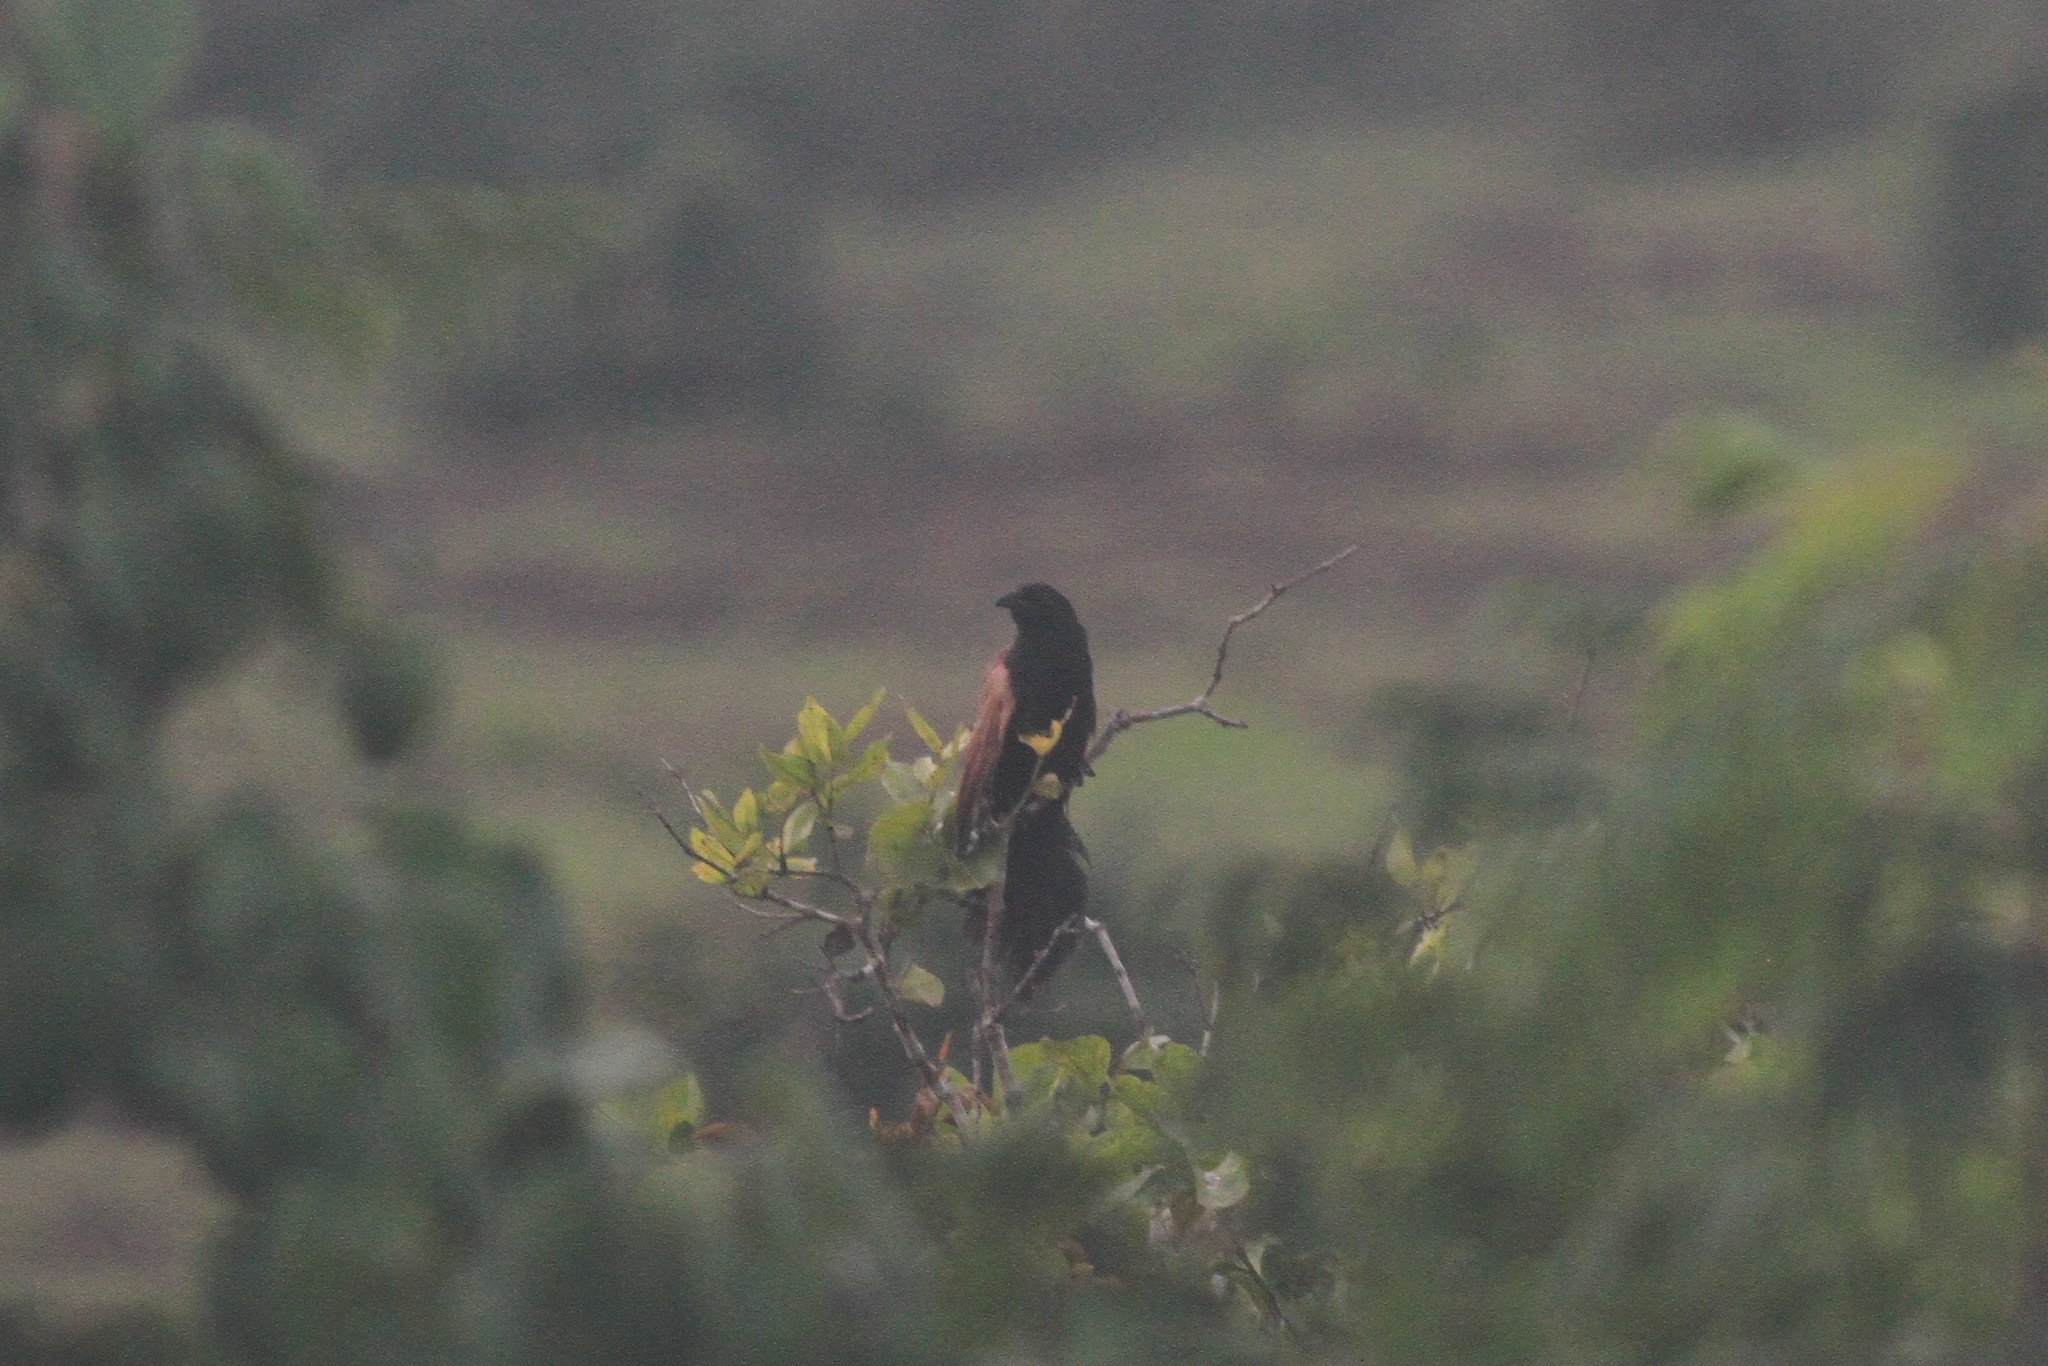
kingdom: Animalia
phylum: Chordata
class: Aves
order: Cuculiformes
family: Cuculidae
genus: Centropus
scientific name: Centropus bengalensis
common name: Lesser coucal
